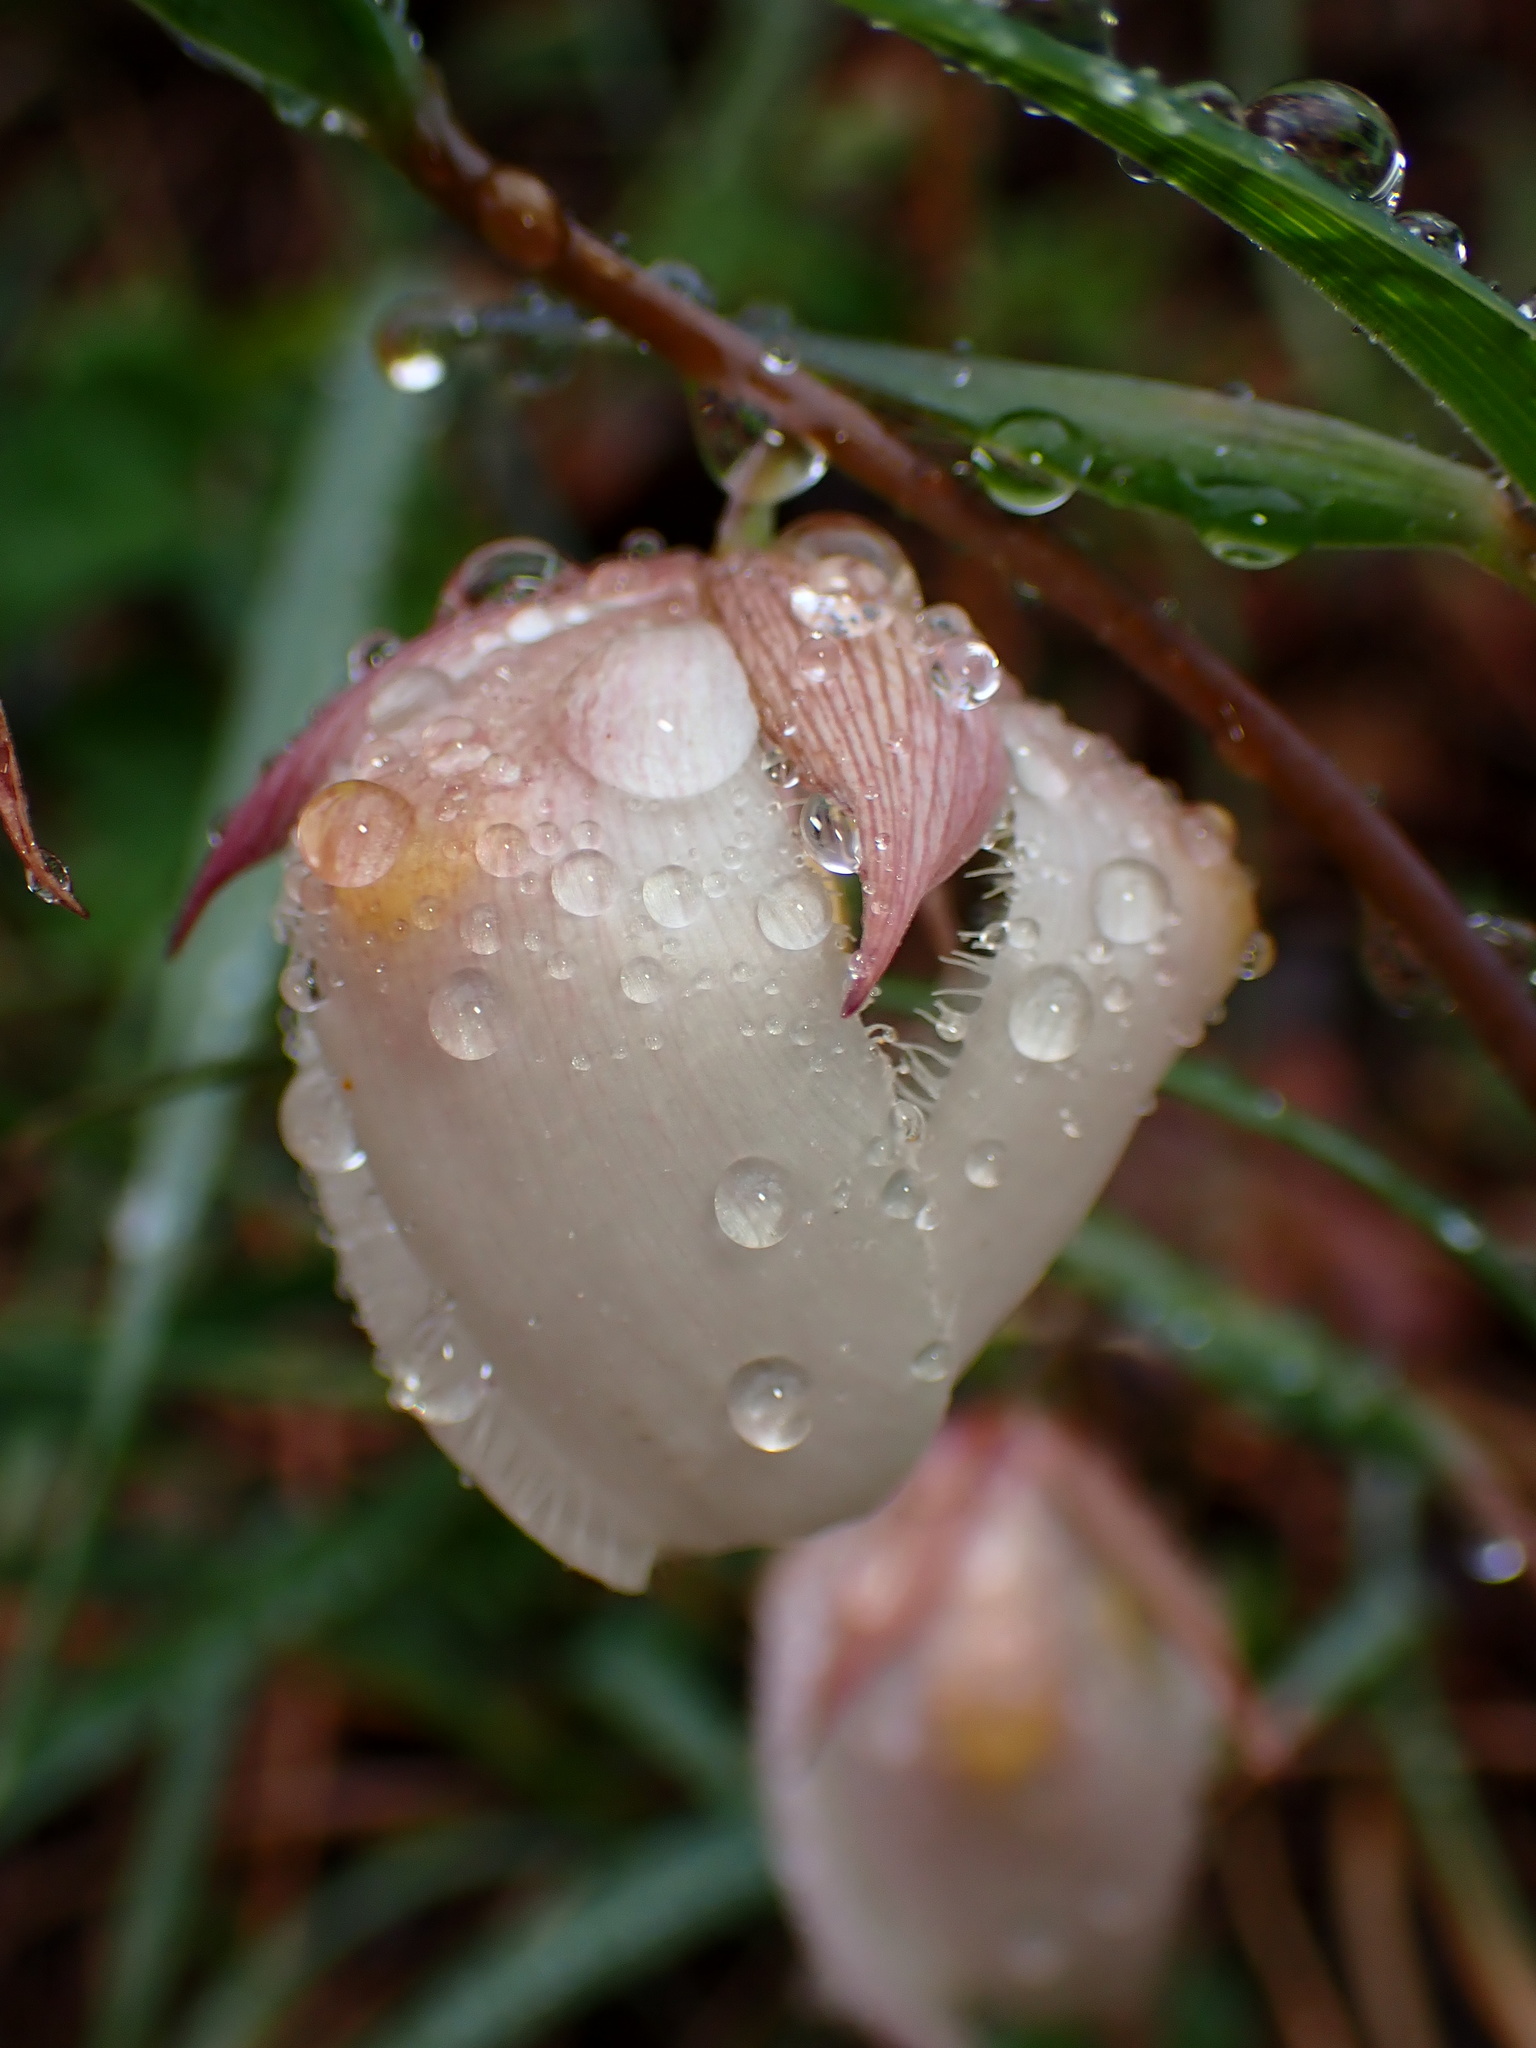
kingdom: Plantae
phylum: Tracheophyta
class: Liliopsida
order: Liliales
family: Liliaceae
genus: Calochortus
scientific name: Calochortus albus
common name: Fairy-lantern
